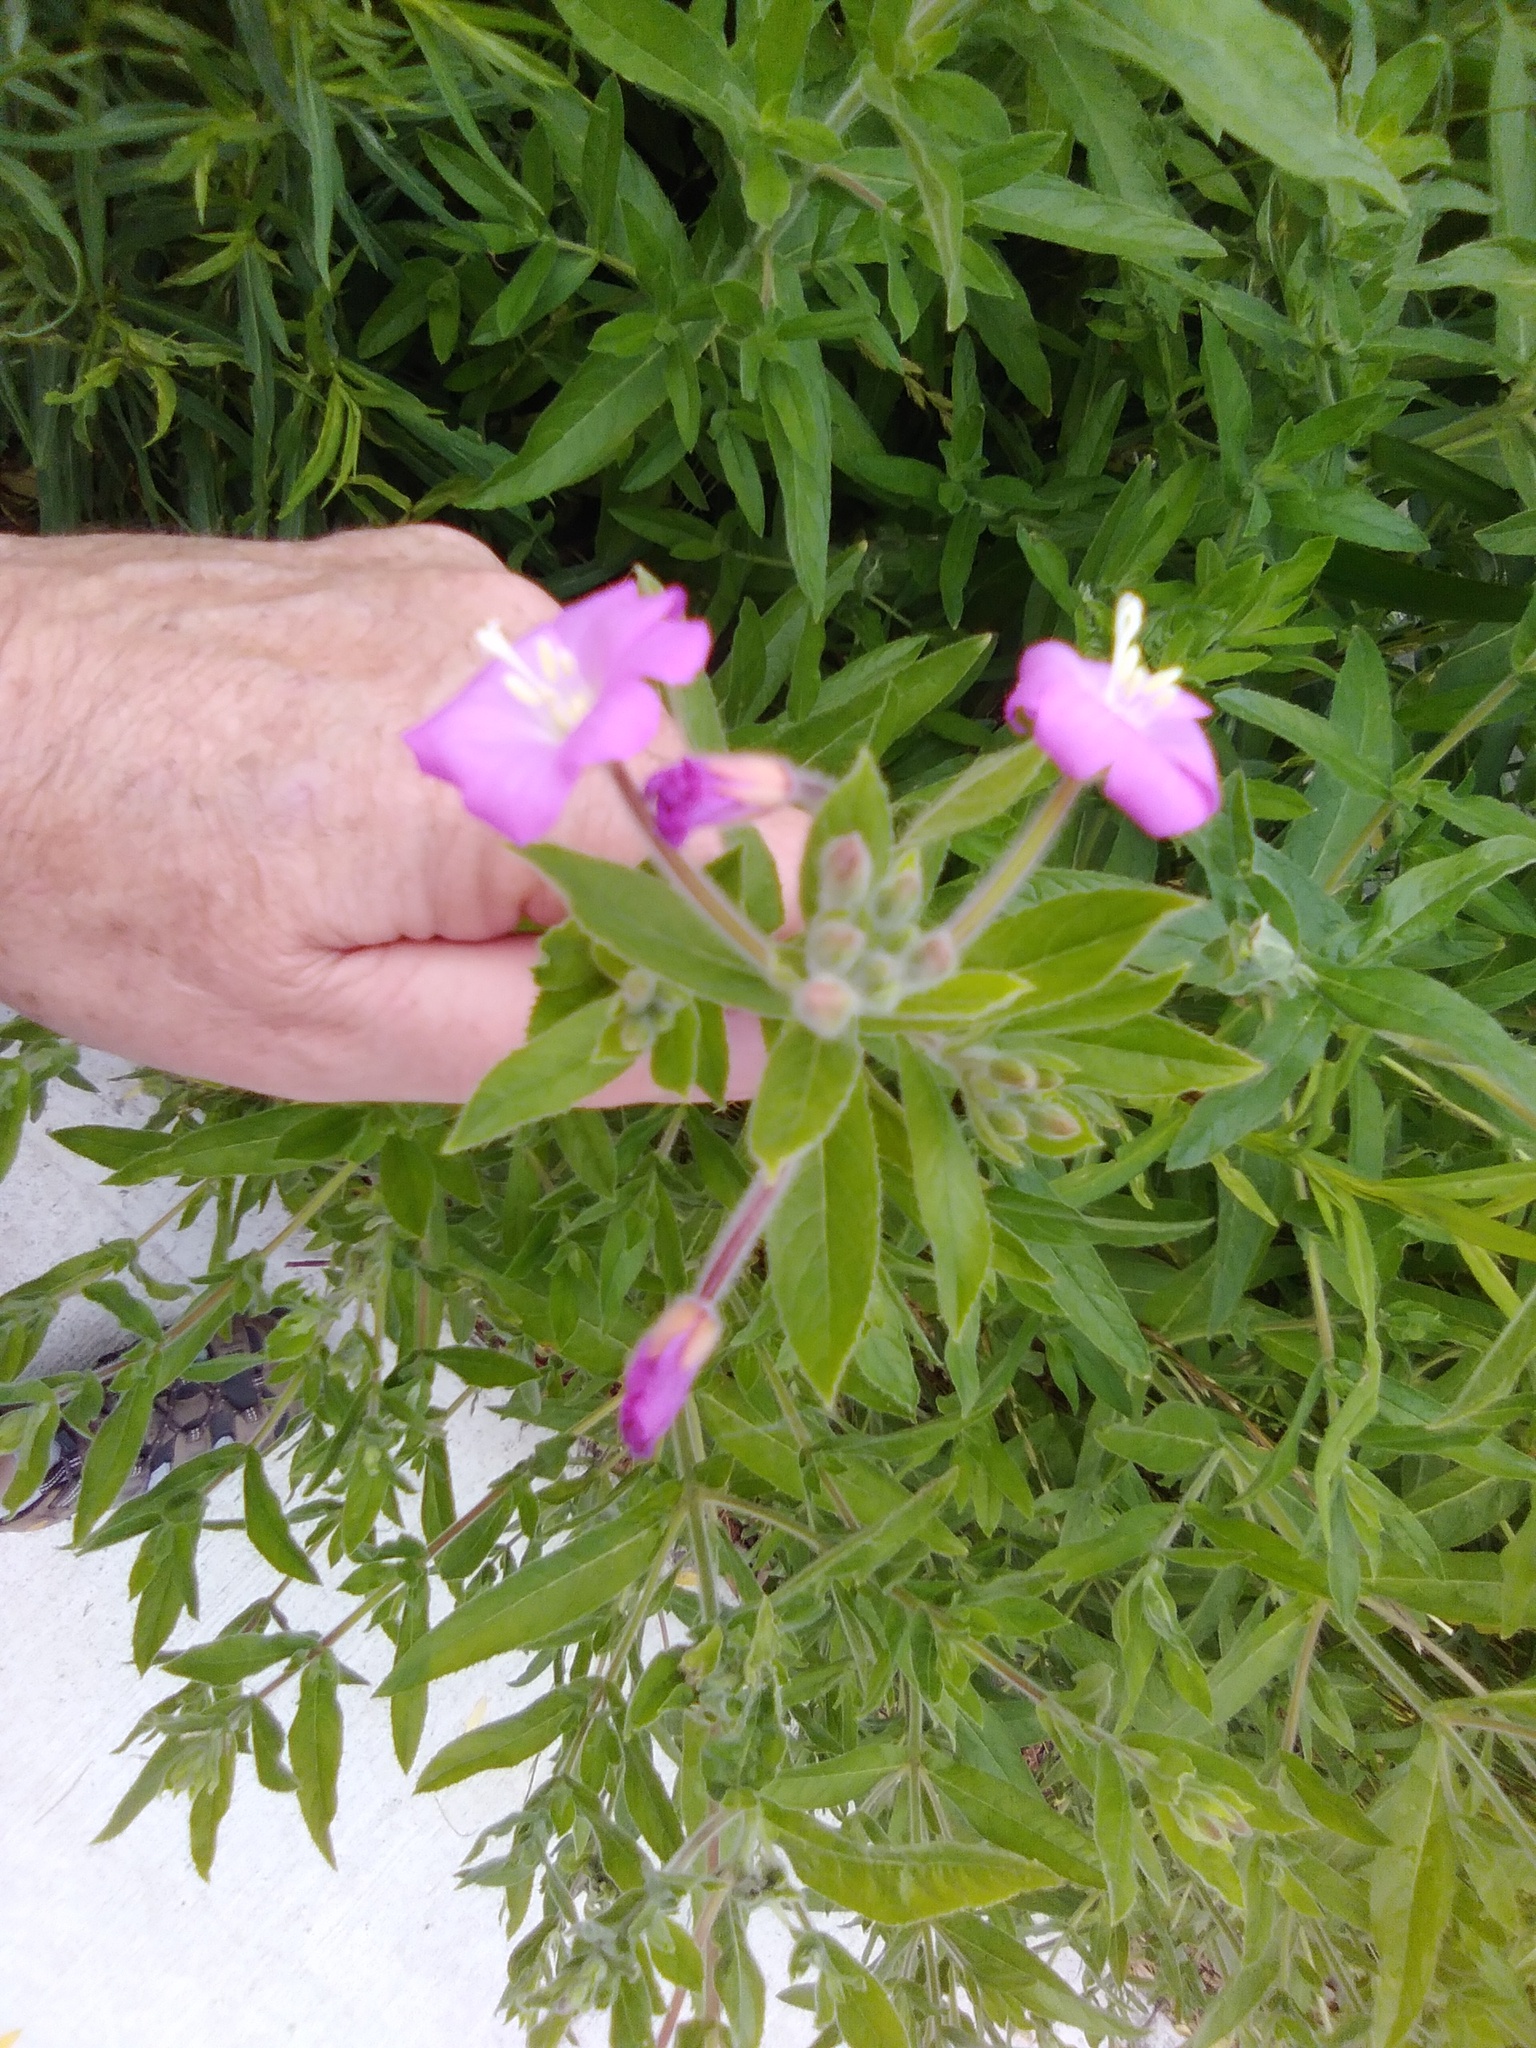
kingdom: Plantae
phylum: Tracheophyta
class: Magnoliopsida
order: Myrtales
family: Onagraceae
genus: Epilobium
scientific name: Epilobium hirsutum
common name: Great willowherb
